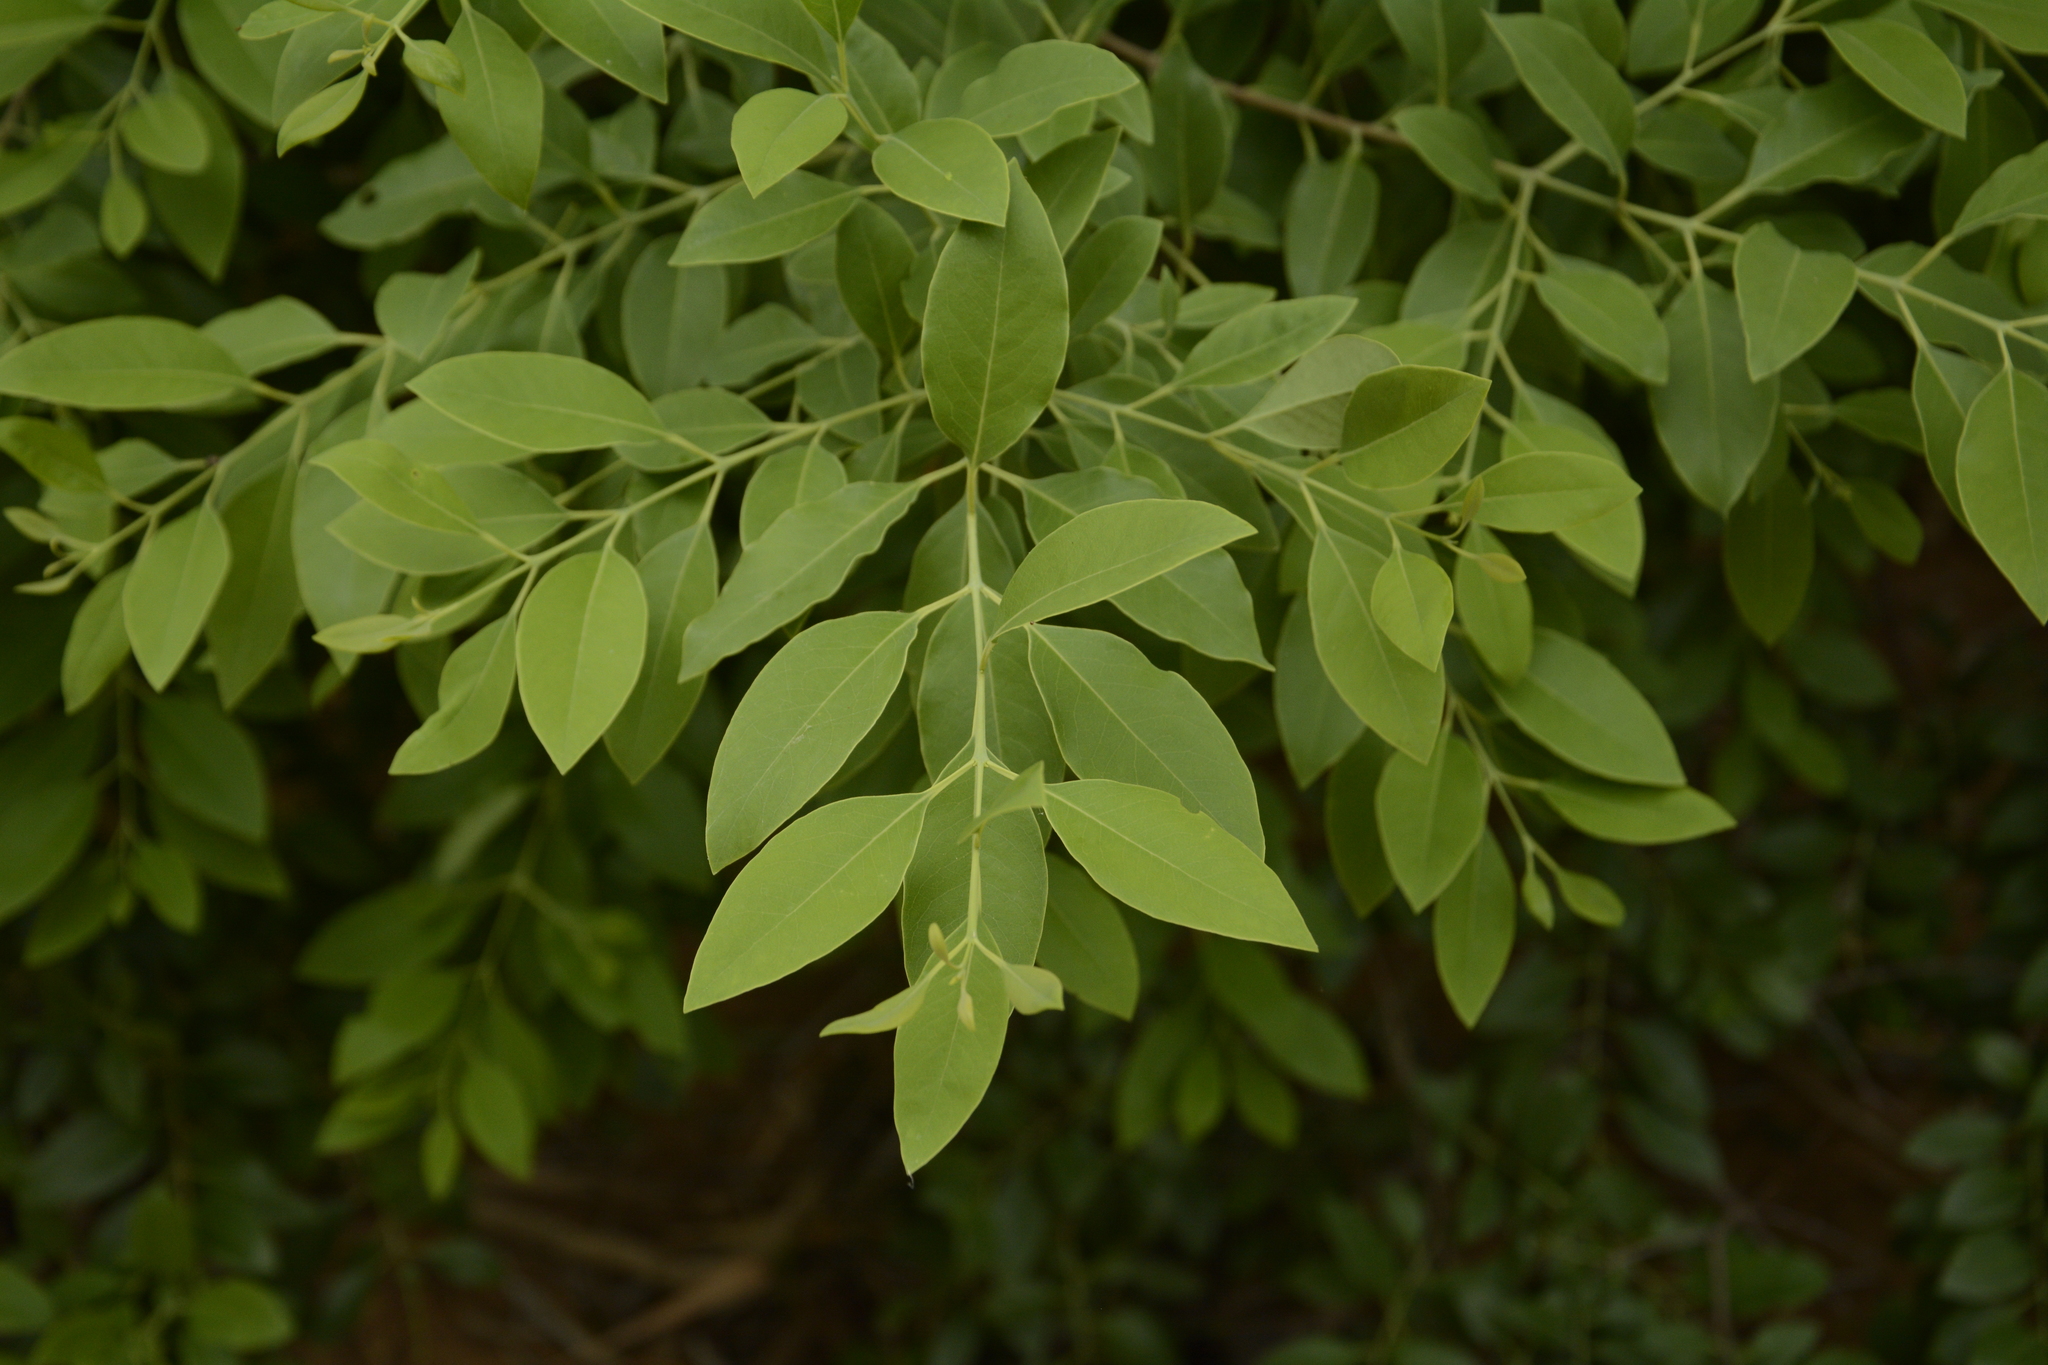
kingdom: Plantae
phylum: Tracheophyta
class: Magnoliopsida
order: Santalales
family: Santalaceae
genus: Santalum
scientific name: Santalum album
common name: Indian sandalwood
